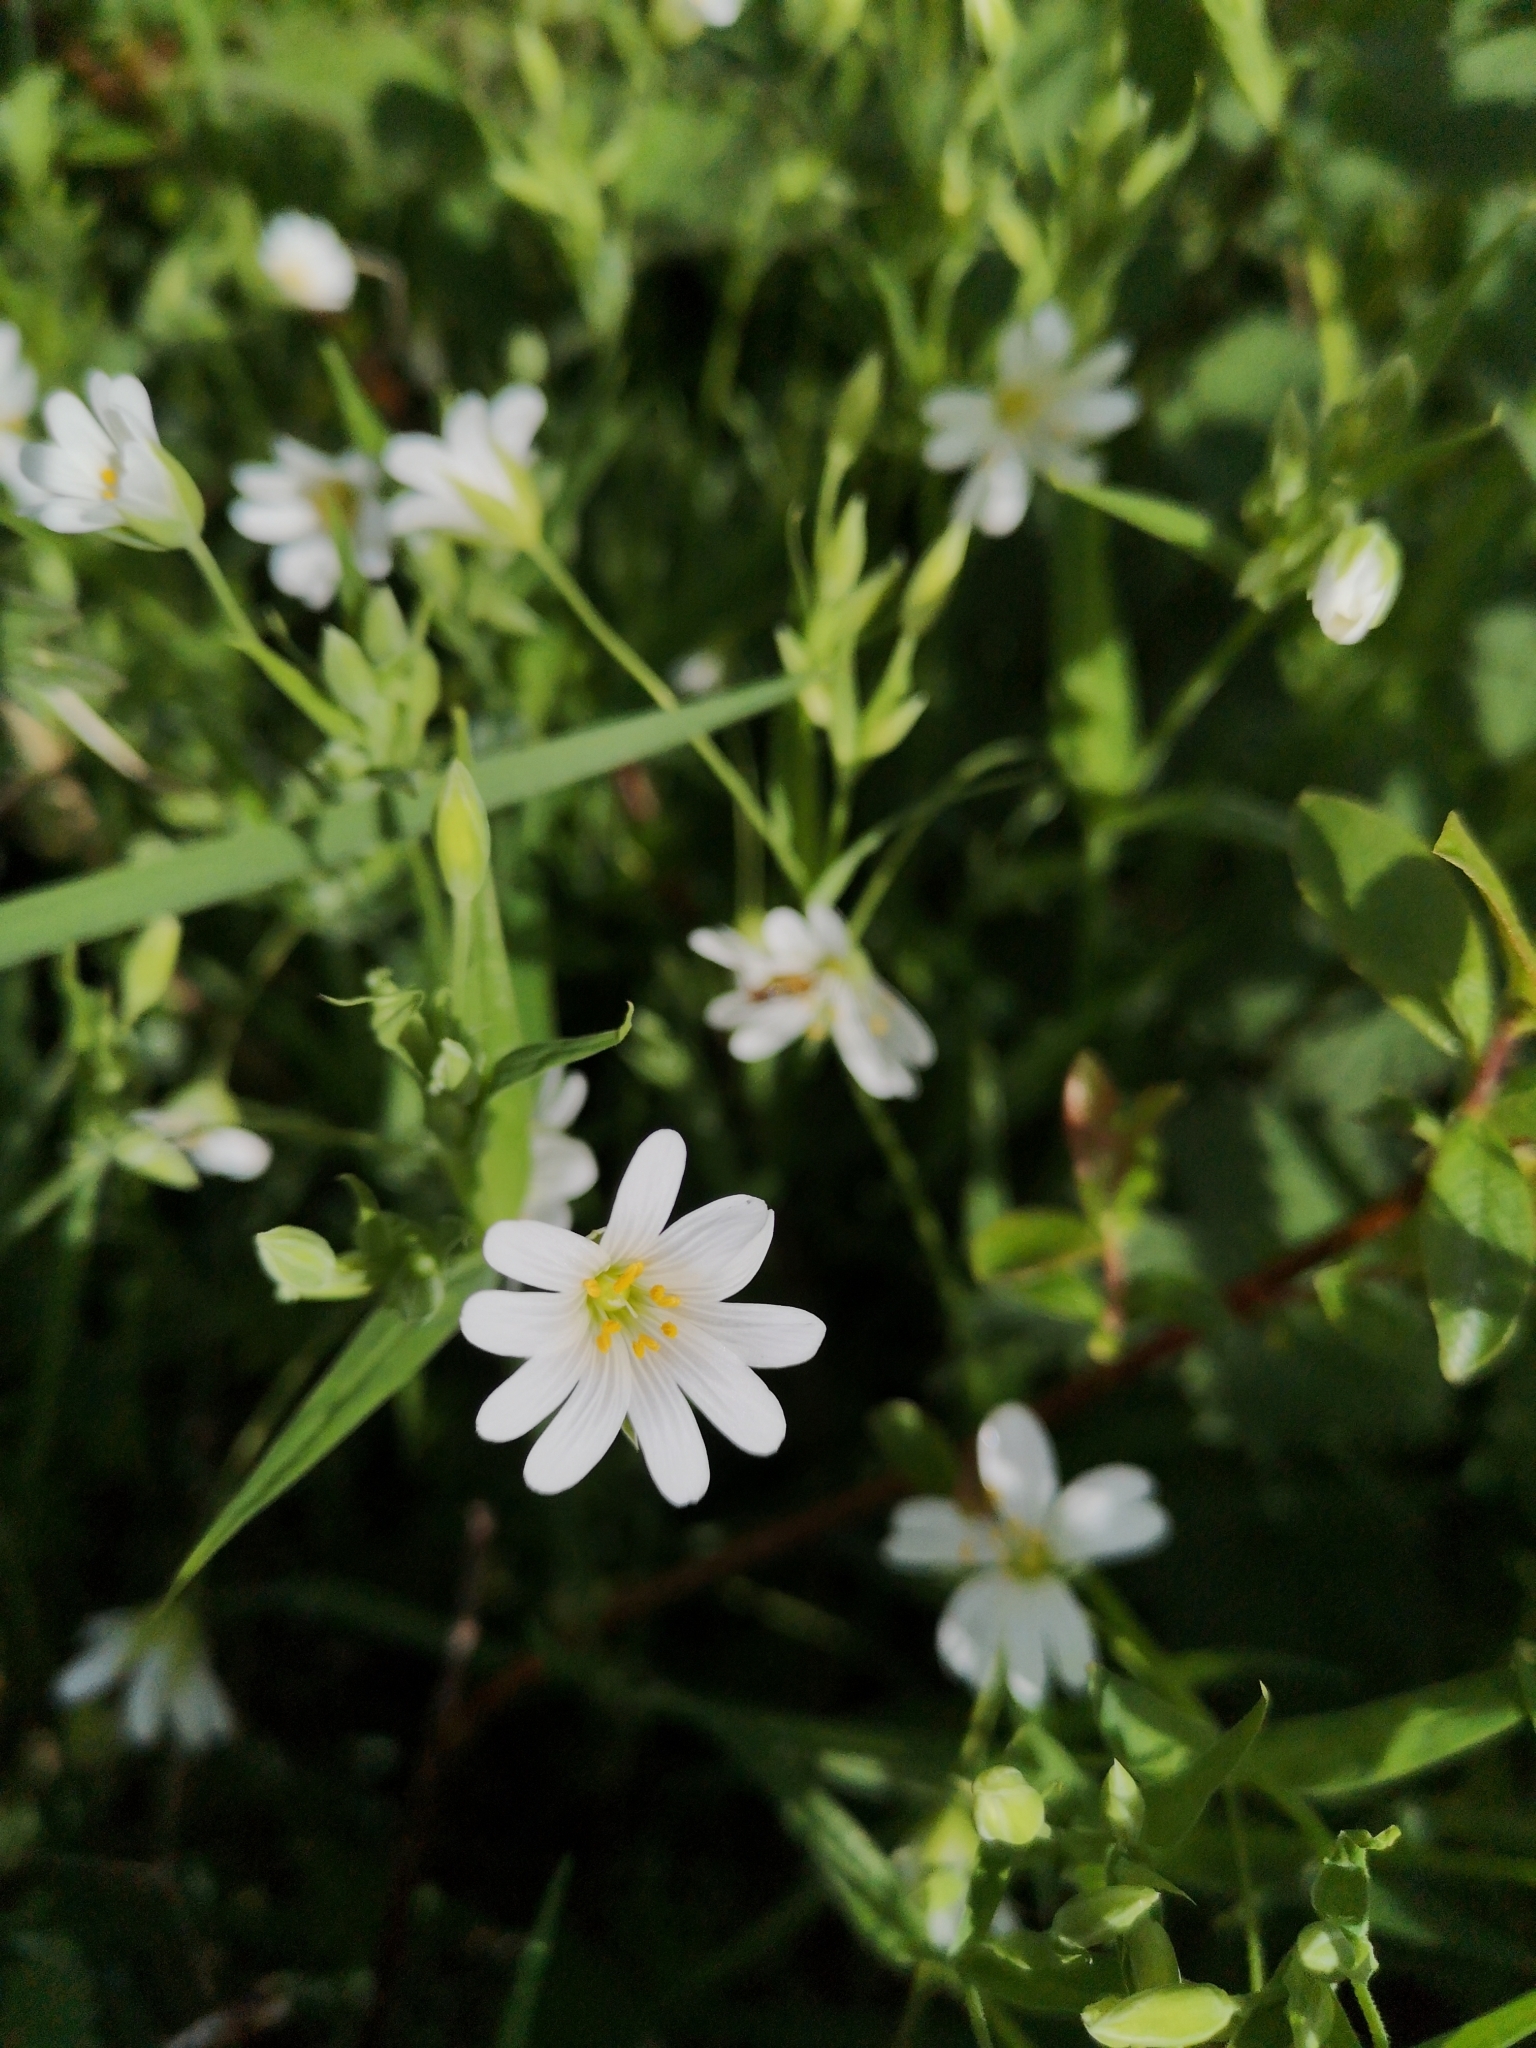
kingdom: Plantae
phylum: Tracheophyta
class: Magnoliopsida
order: Caryophyllales
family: Caryophyllaceae
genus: Rabelera
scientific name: Rabelera holostea
